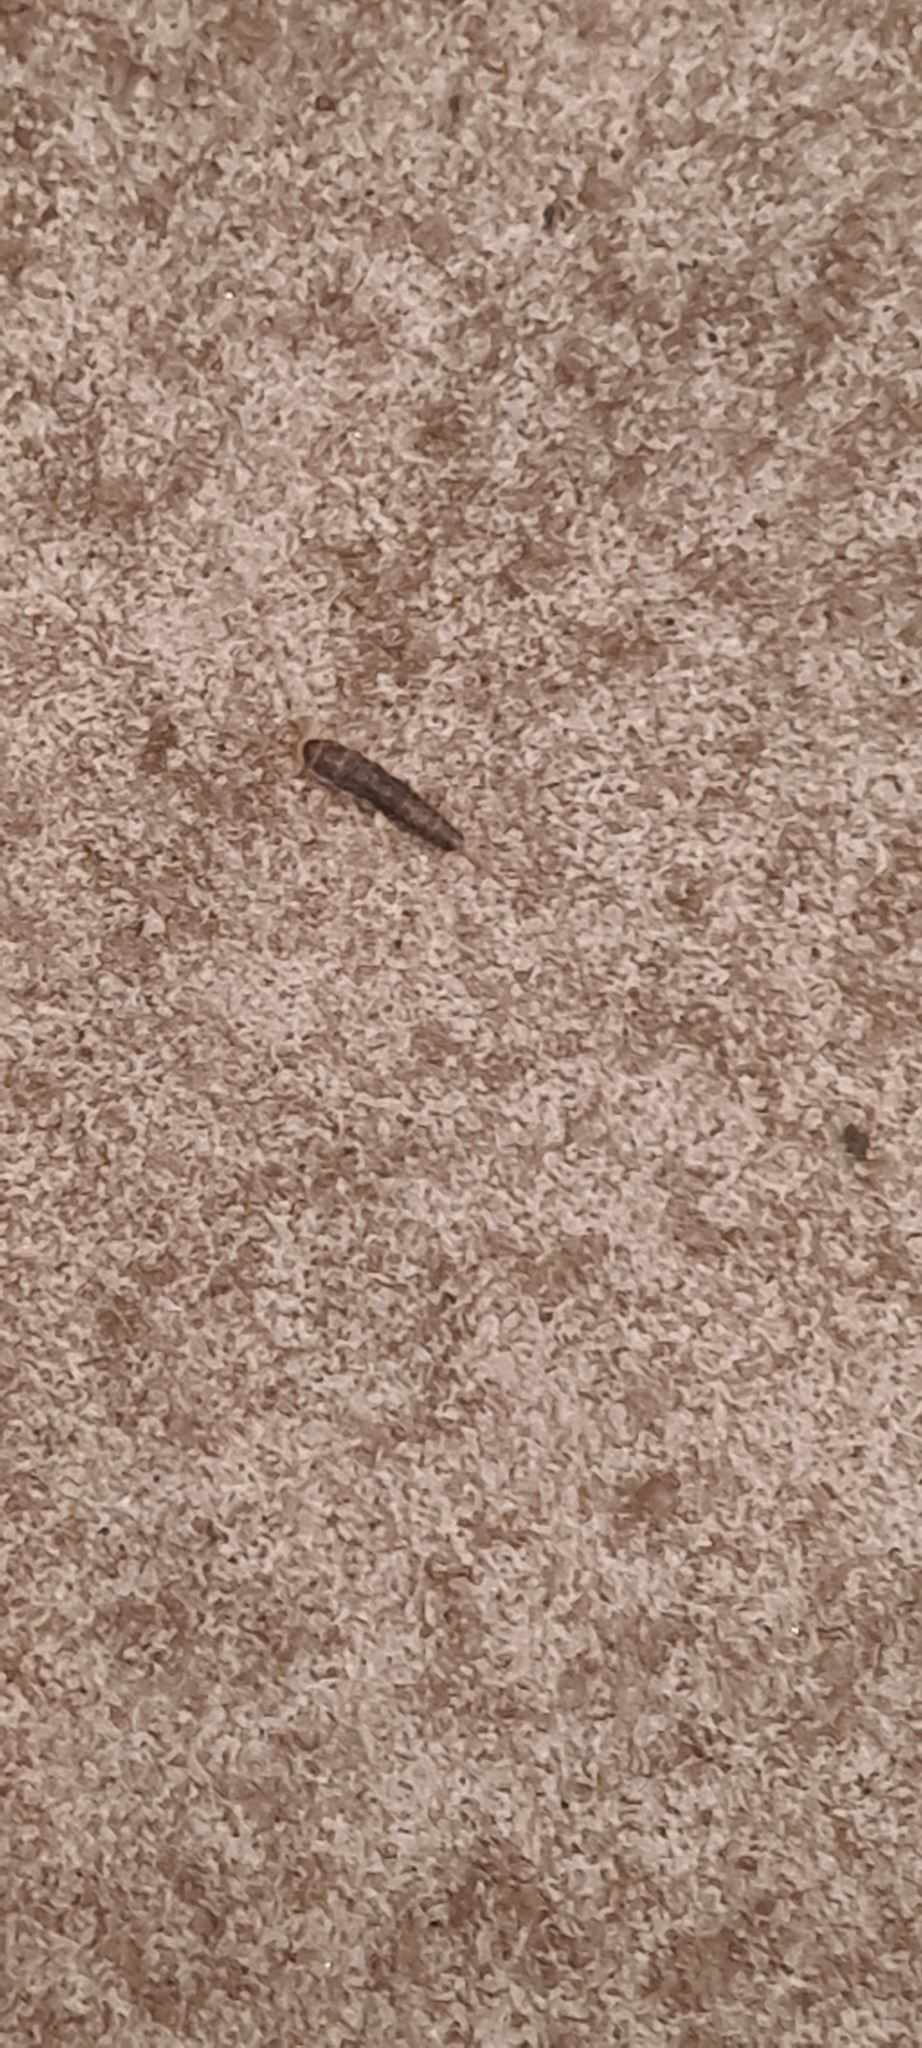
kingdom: Animalia
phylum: Arthropoda
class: Insecta
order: Zygentoma
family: Lepismatidae
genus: Ctenolepisma
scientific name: Ctenolepisma longicaudatum
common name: Silverfish
